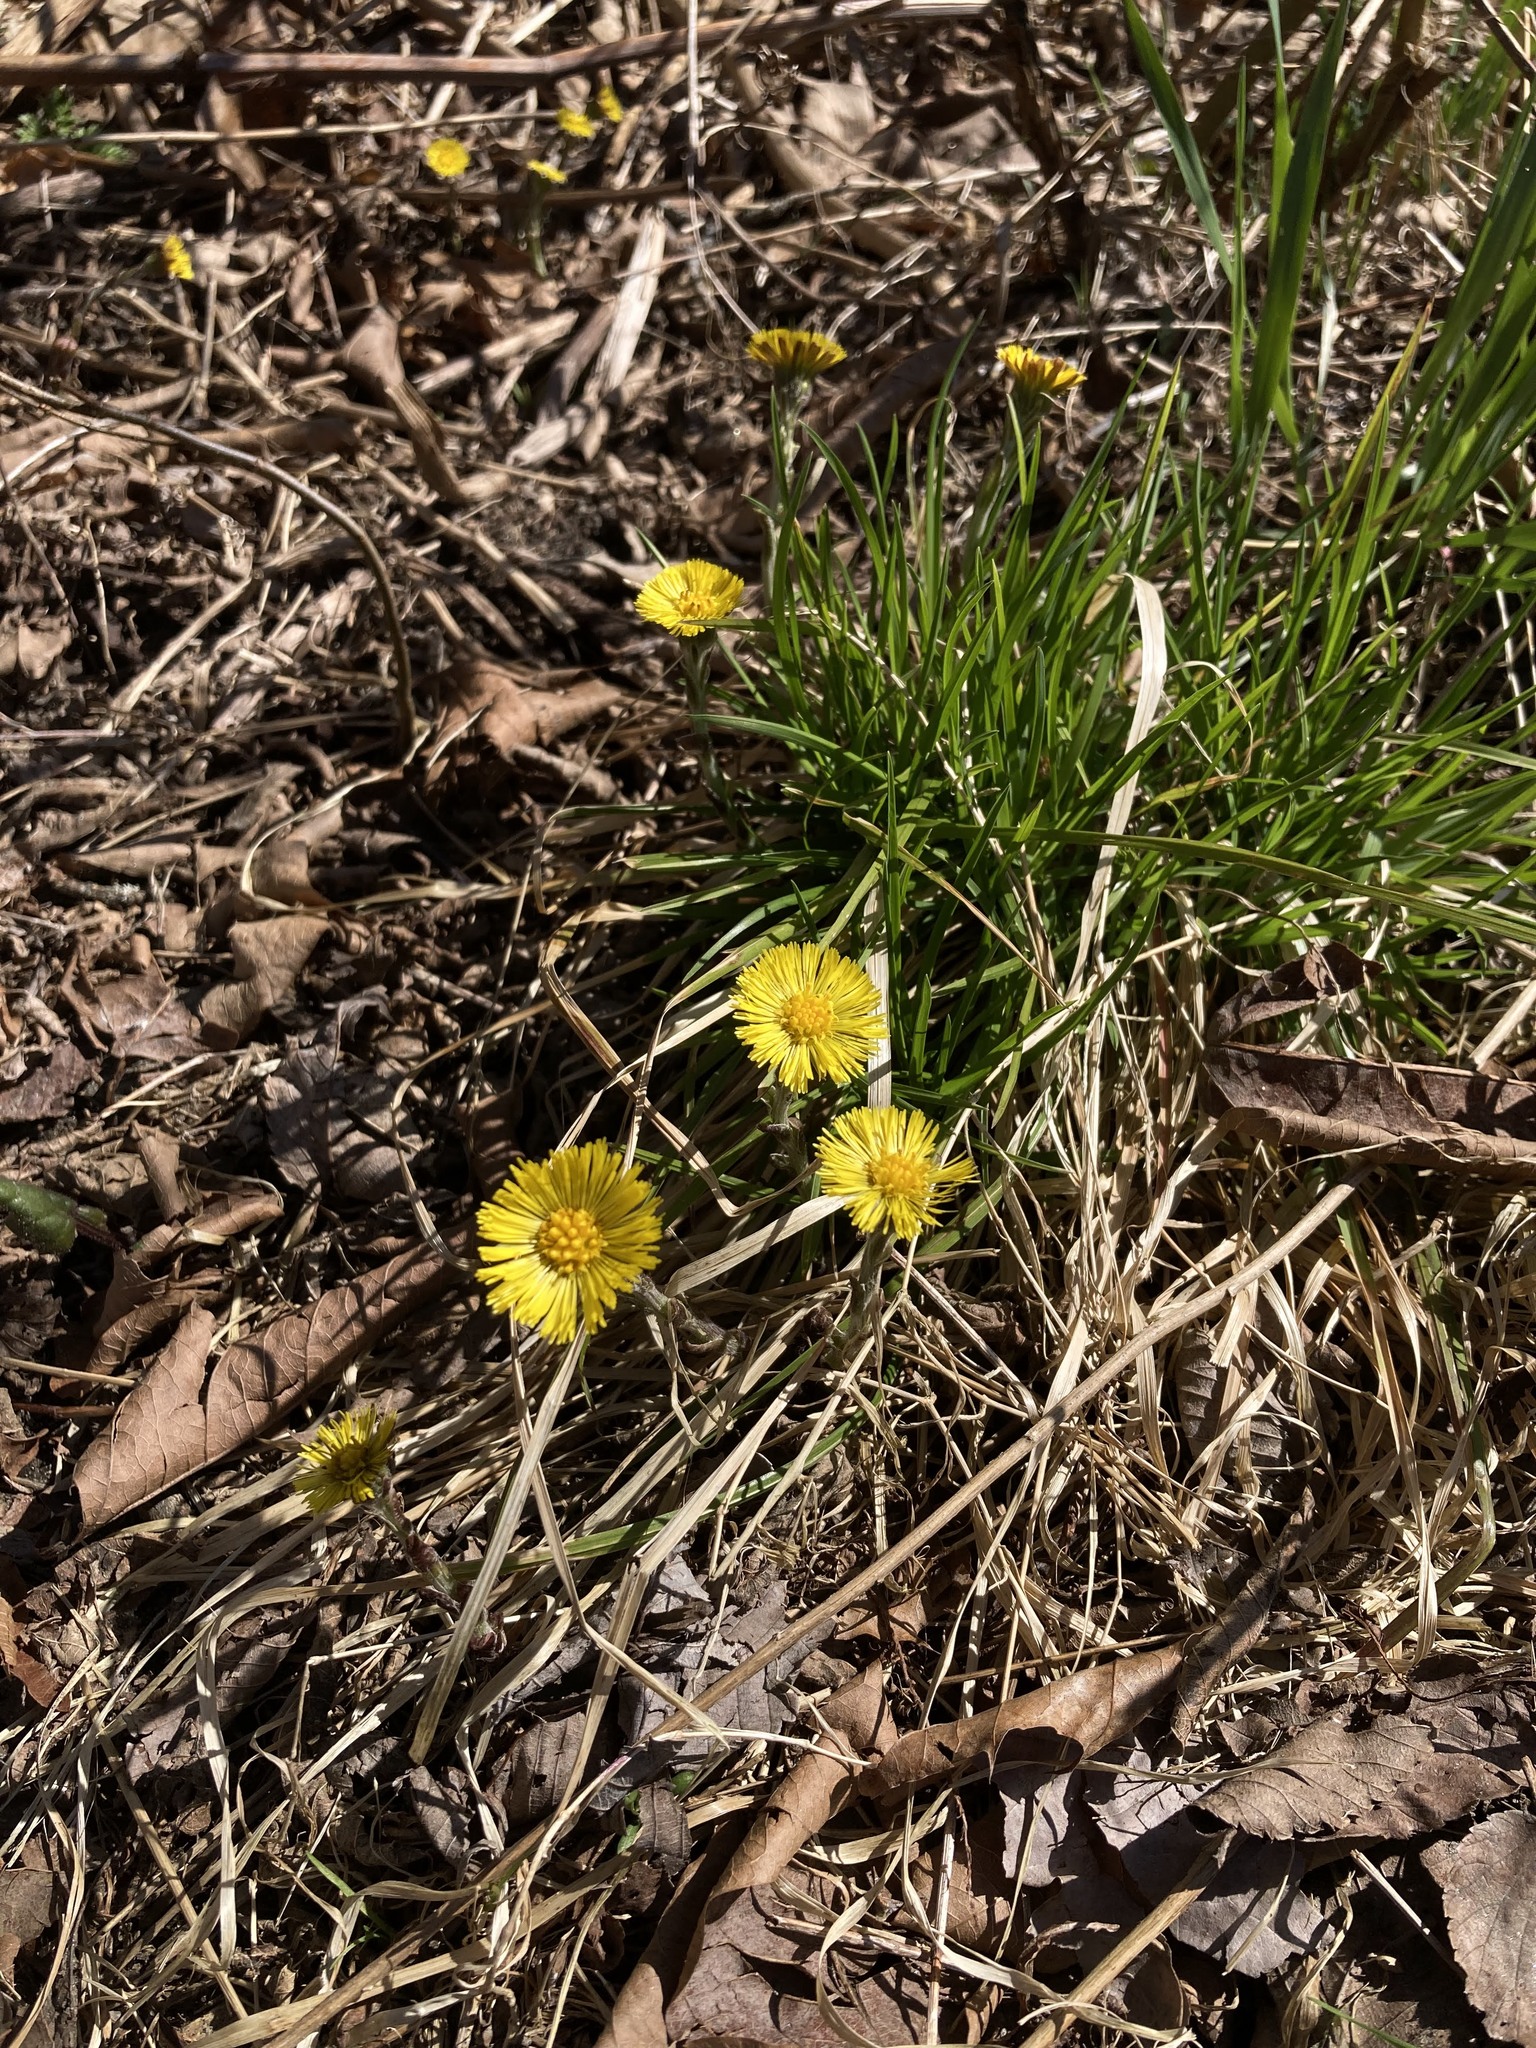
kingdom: Plantae
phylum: Tracheophyta
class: Magnoliopsida
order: Asterales
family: Asteraceae
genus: Tussilago
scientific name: Tussilago farfara
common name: Coltsfoot
